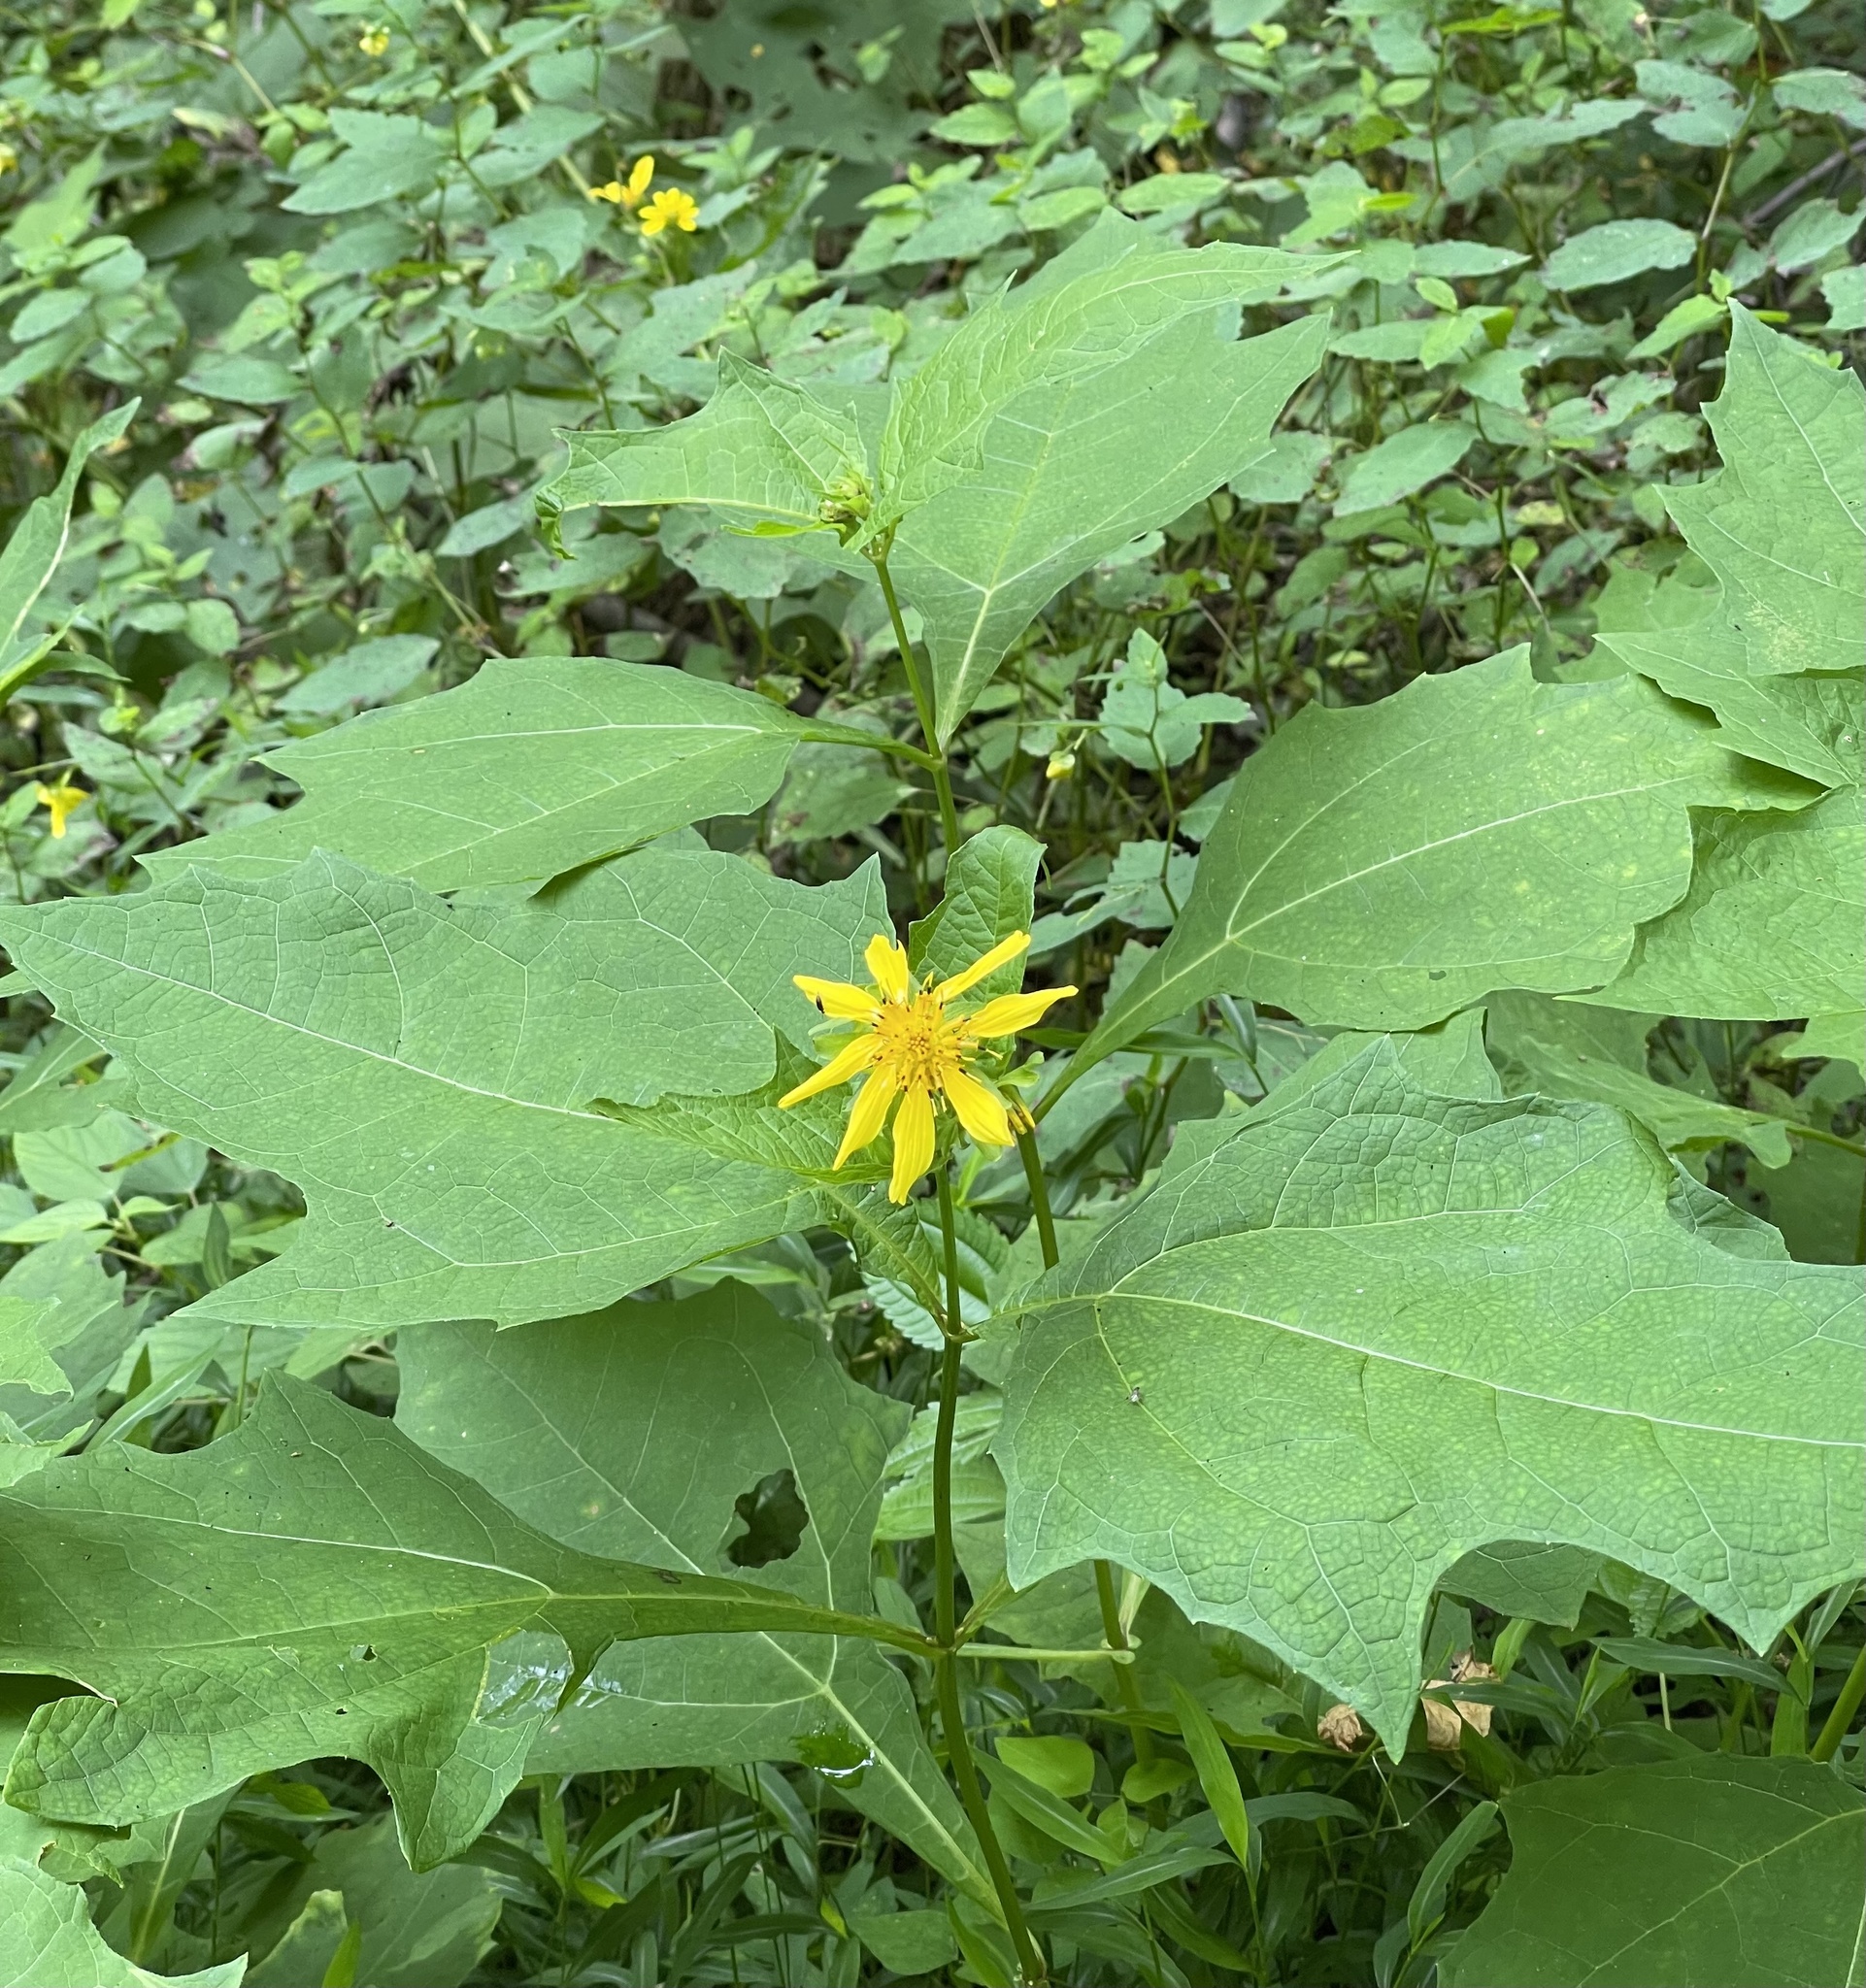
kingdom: Plantae
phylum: Tracheophyta
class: Magnoliopsida
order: Asterales
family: Asteraceae
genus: Smallanthus
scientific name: Smallanthus uvedalia
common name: Bear's-foot
